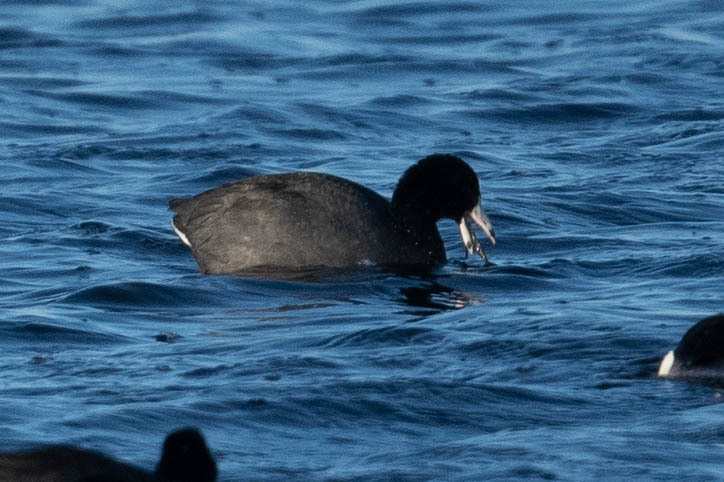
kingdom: Animalia
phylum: Chordata
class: Aves
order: Gruiformes
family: Rallidae
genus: Fulica
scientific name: Fulica americana
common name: American coot
